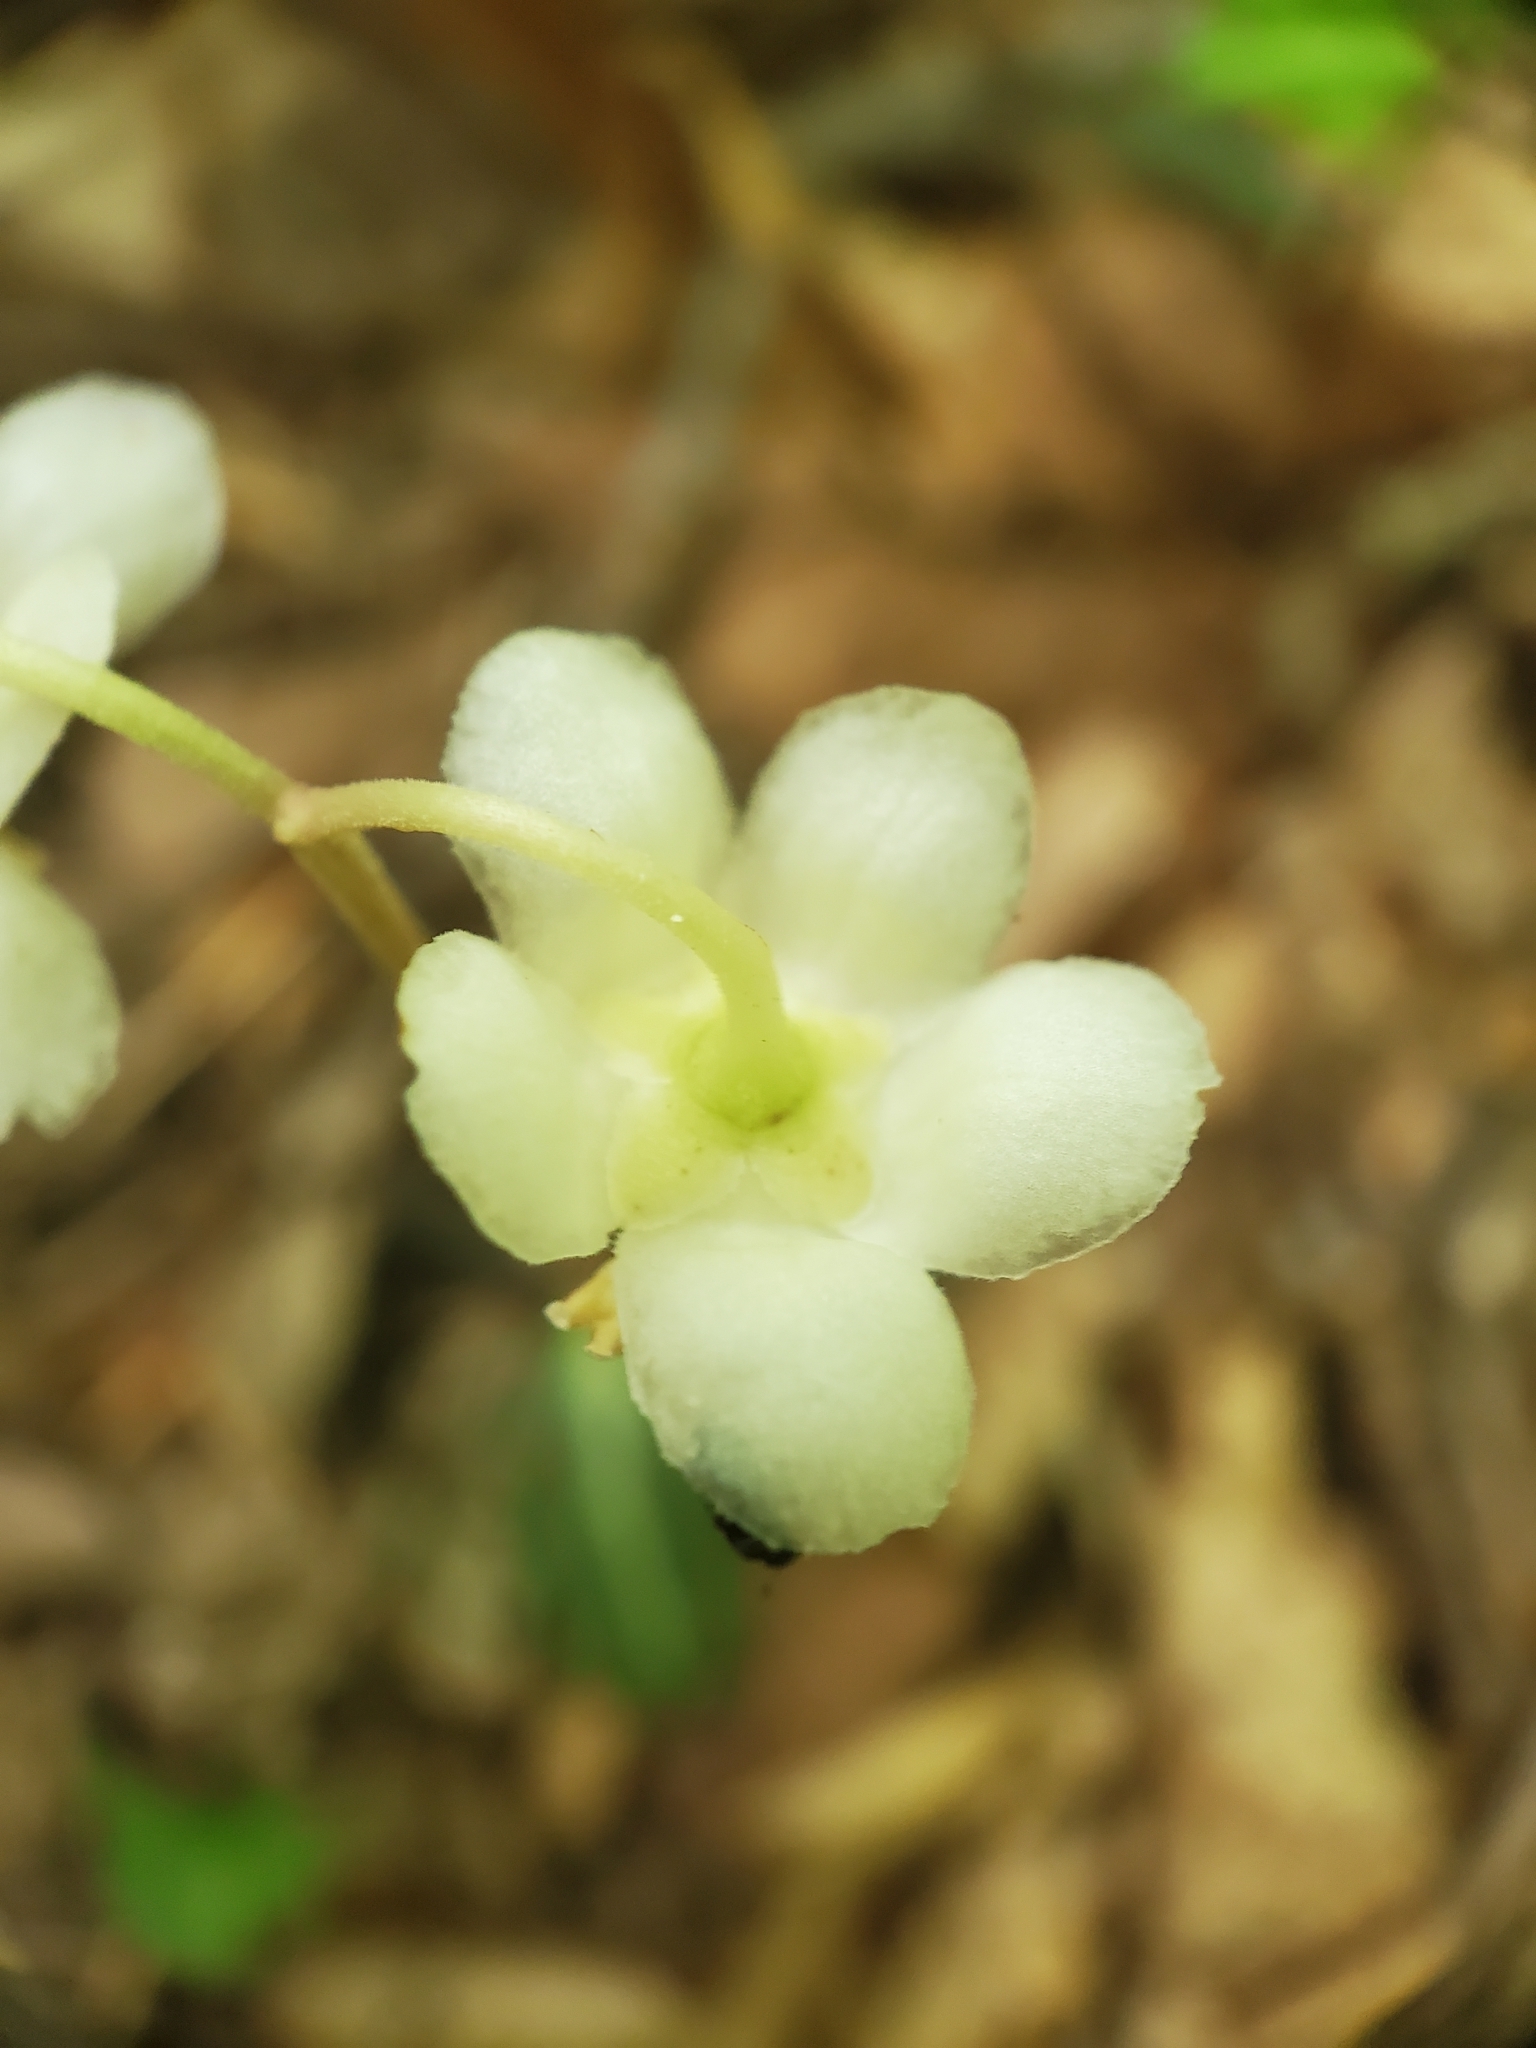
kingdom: Plantae
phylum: Tracheophyta
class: Magnoliopsida
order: Ericales
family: Ericaceae
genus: Chimaphila
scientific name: Chimaphila maculata
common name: Spotted pipsissewa
